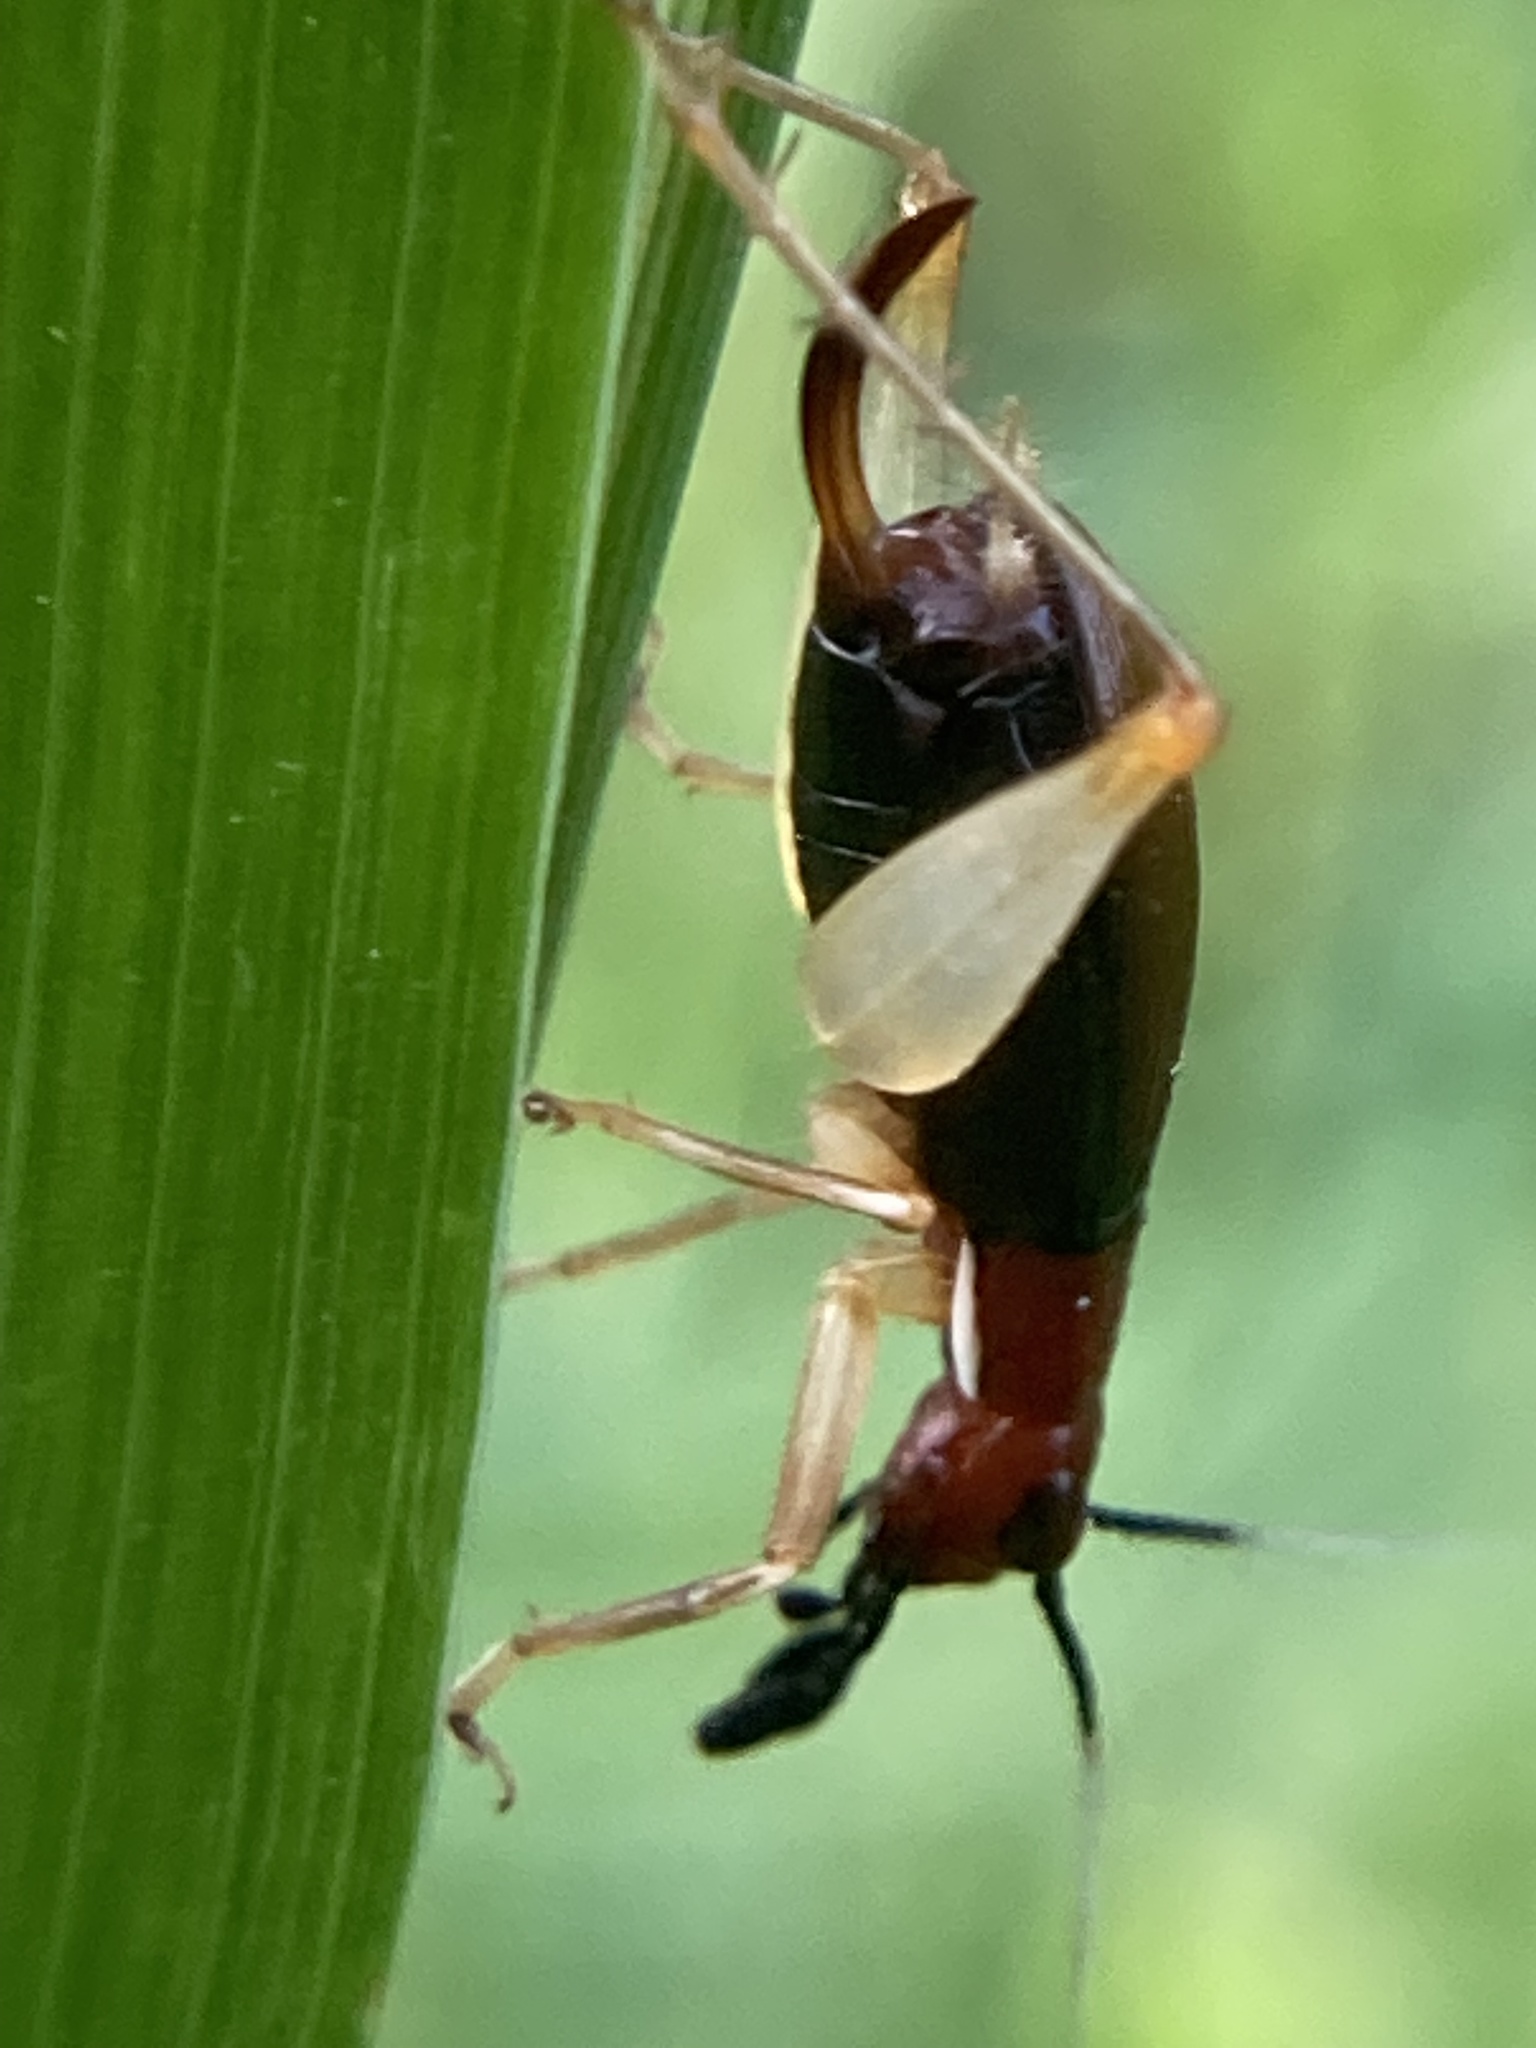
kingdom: Animalia
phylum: Arthropoda
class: Insecta
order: Orthoptera
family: Trigonidiidae
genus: Phyllopalpus
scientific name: Phyllopalpus pulchellus
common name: Handsome trig
